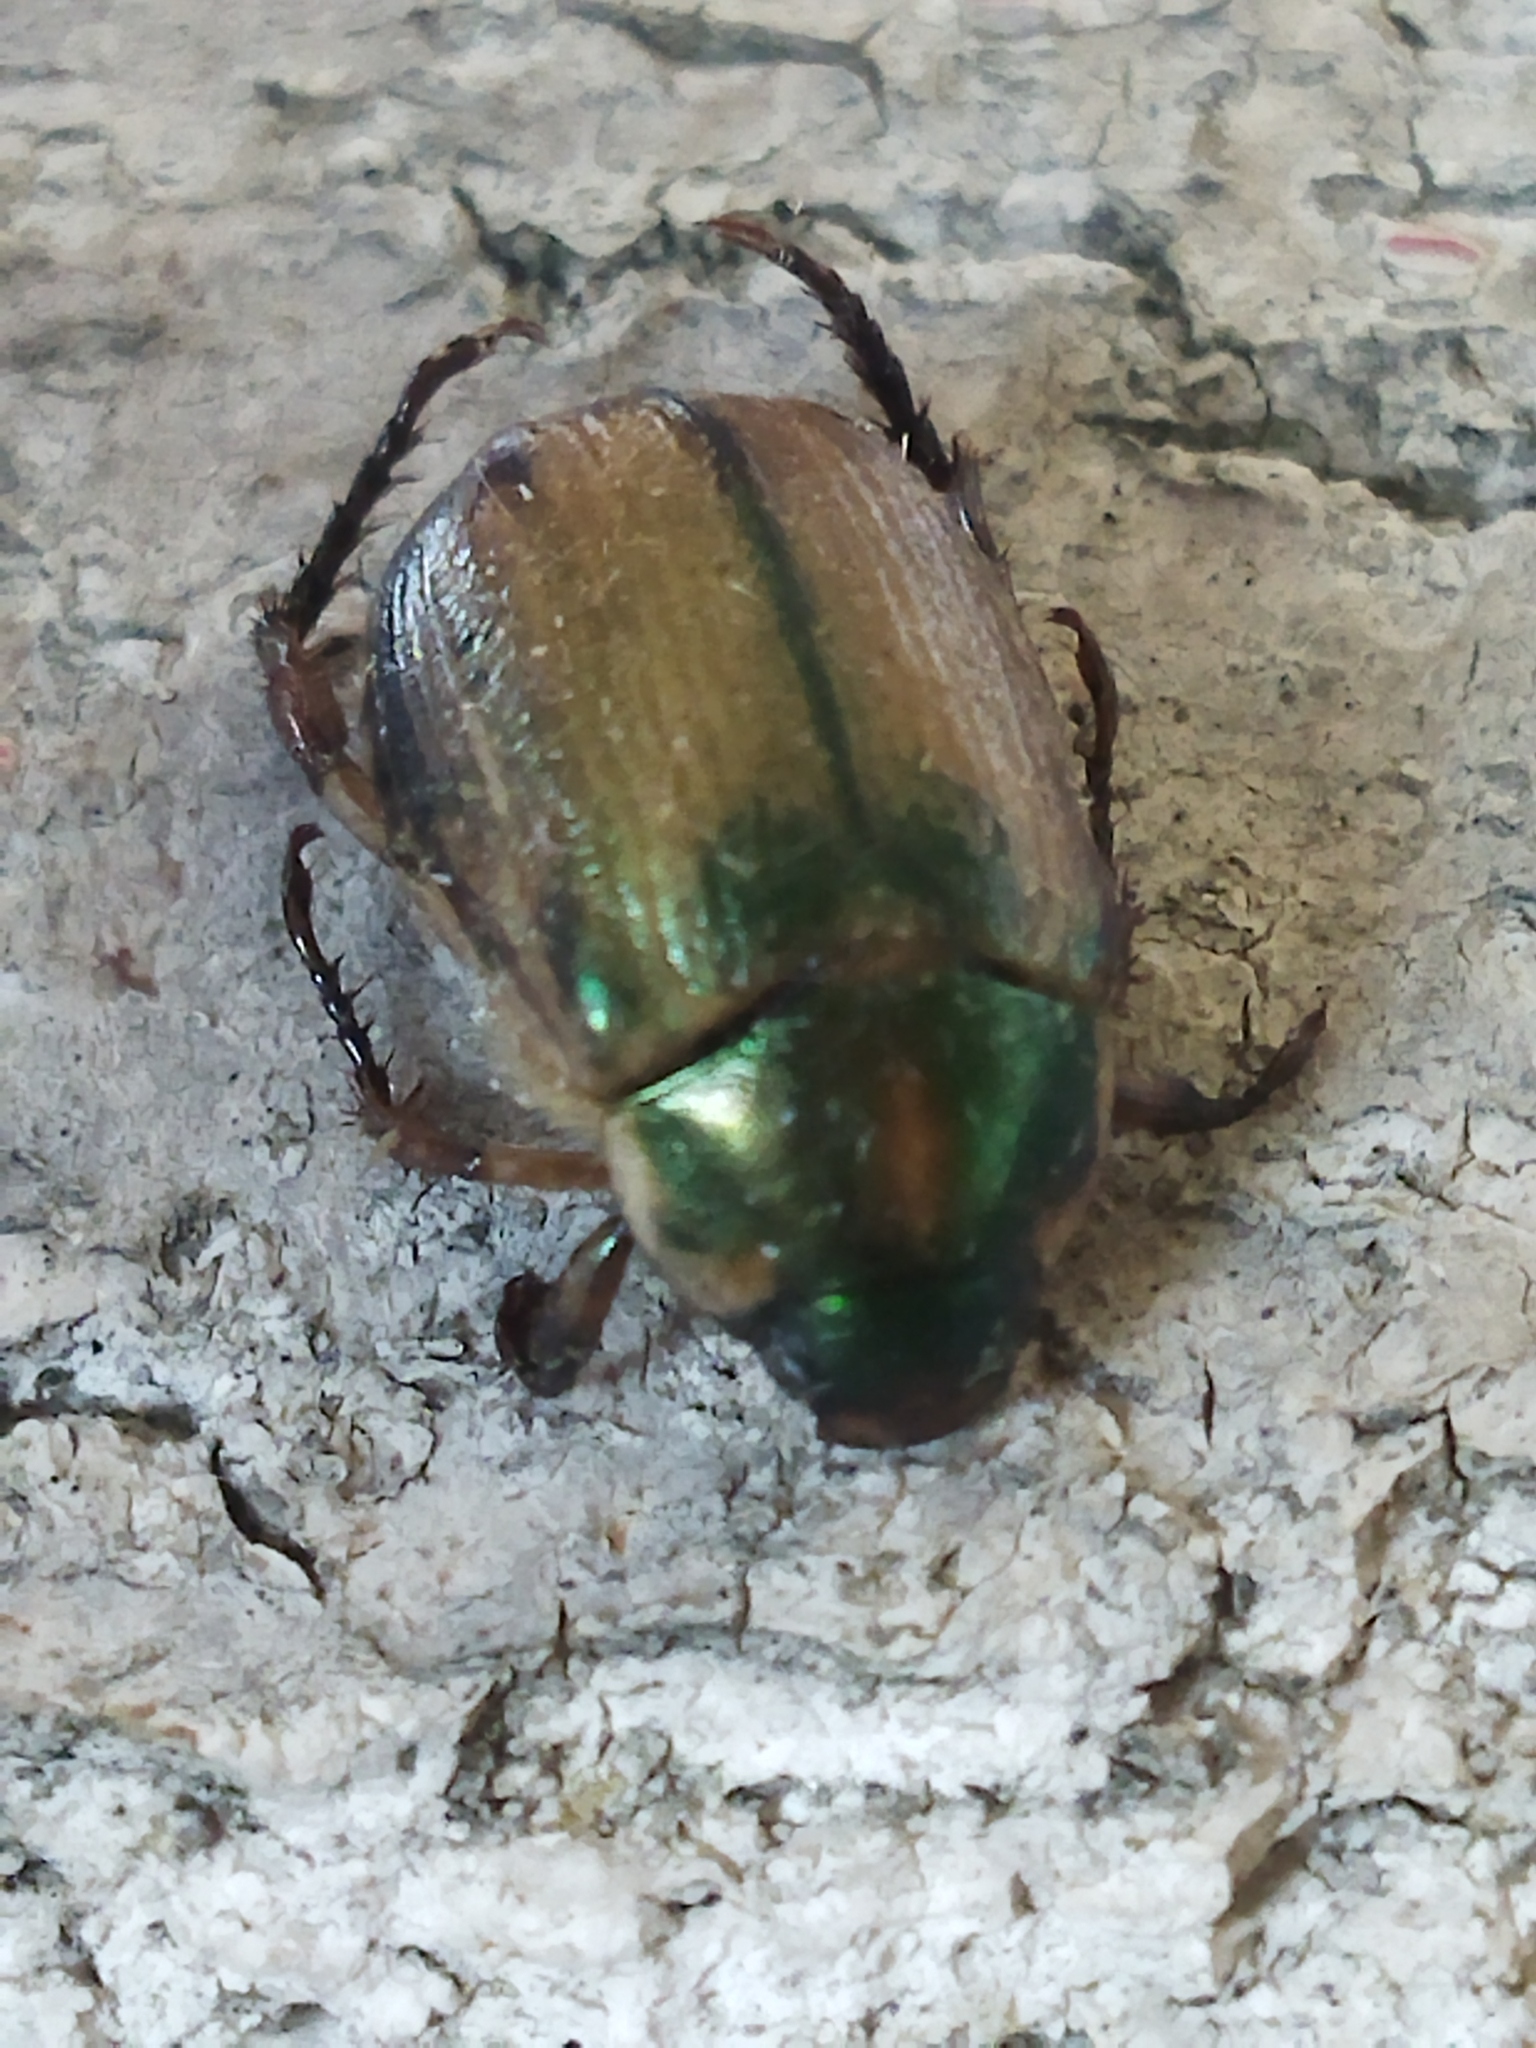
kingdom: Animalia
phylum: Arthropoda
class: Insecta
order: Coleoptera
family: Scarabaeidae
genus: Anomala
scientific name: Anomala vitis
